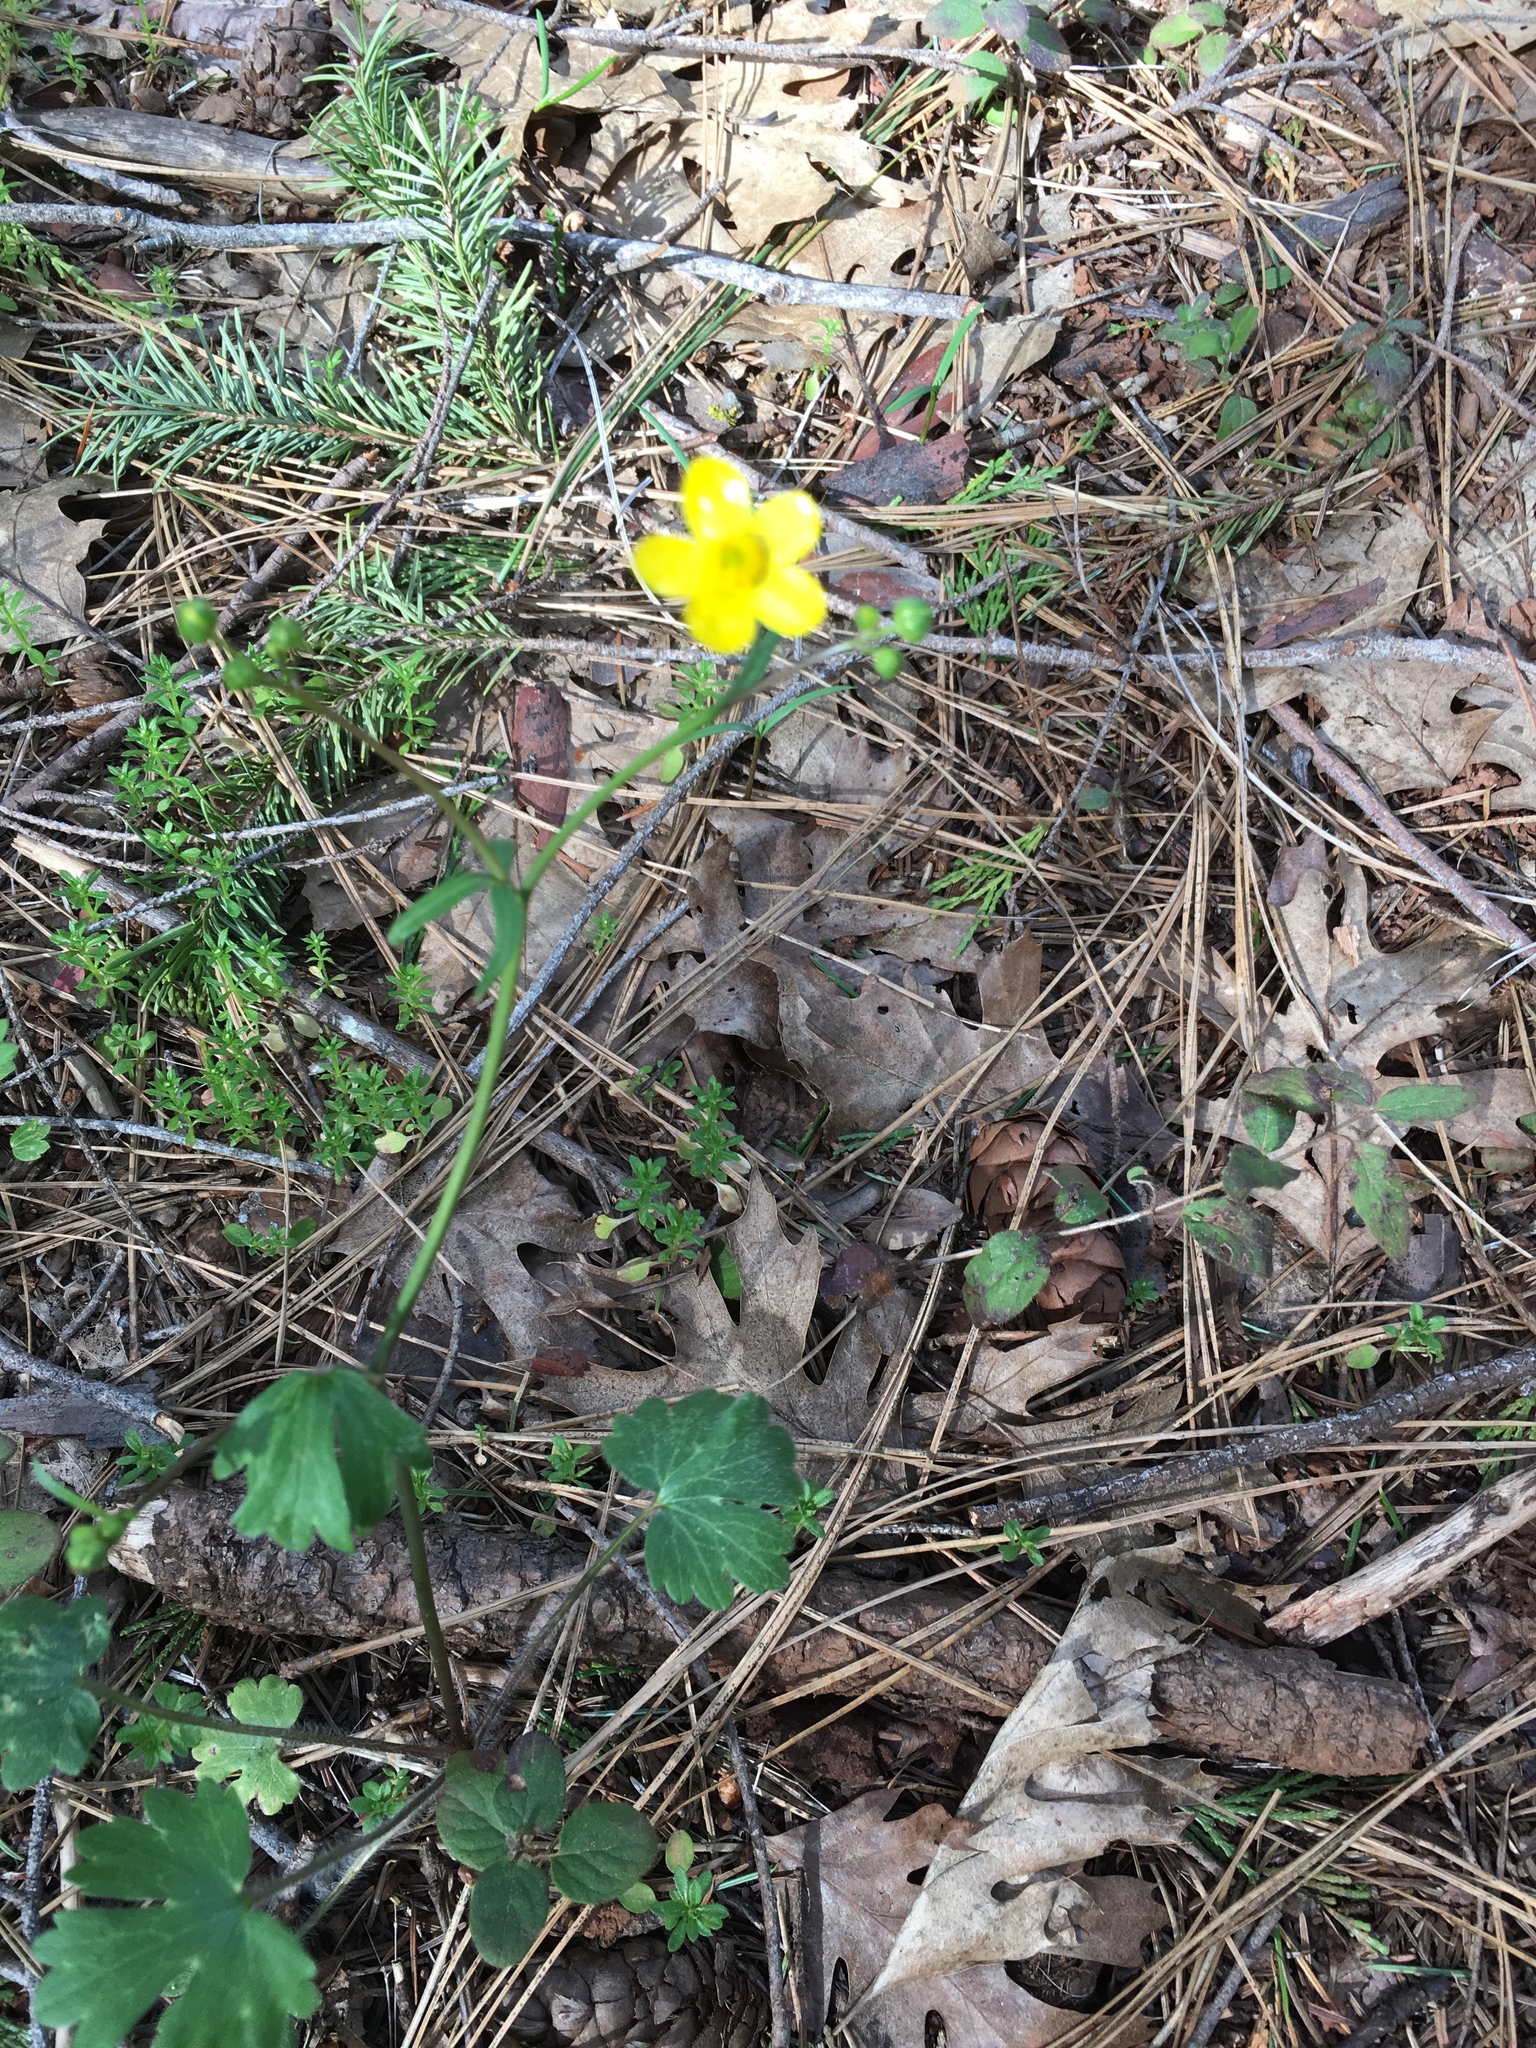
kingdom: Plantae
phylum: Tracheophyta
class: Magnoliopsida
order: Ranunculales
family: Ranunculaceae
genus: Ranunculus
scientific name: Ranunculus occidentalis
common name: Western buttercup
